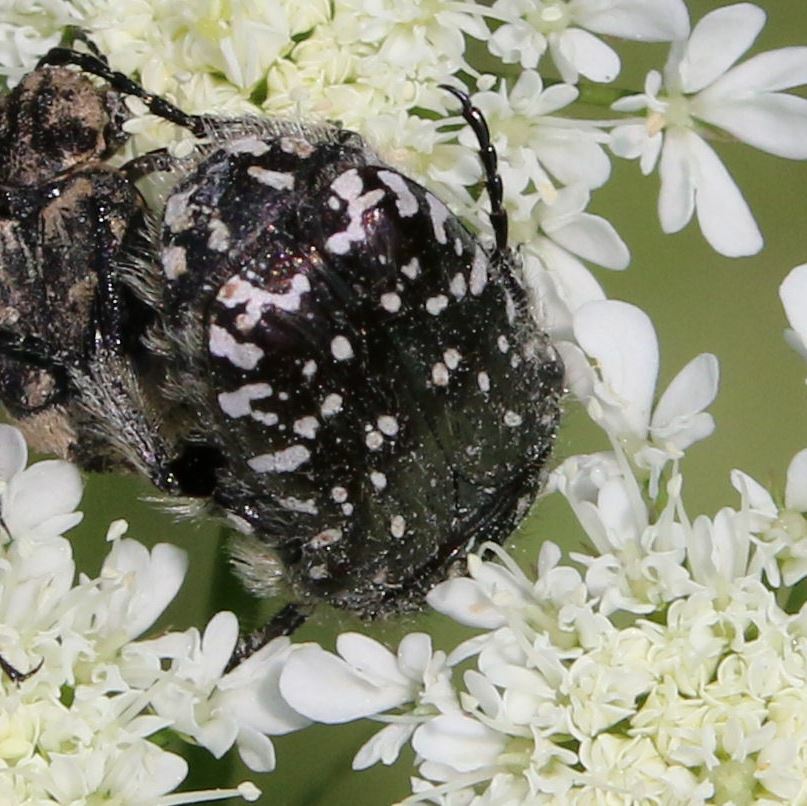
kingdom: Animalia
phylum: Arthropoda
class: Insecta
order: Coleoptera
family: Scarabaeidae
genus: Oxythyrea
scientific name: Oxythyrea funesta
